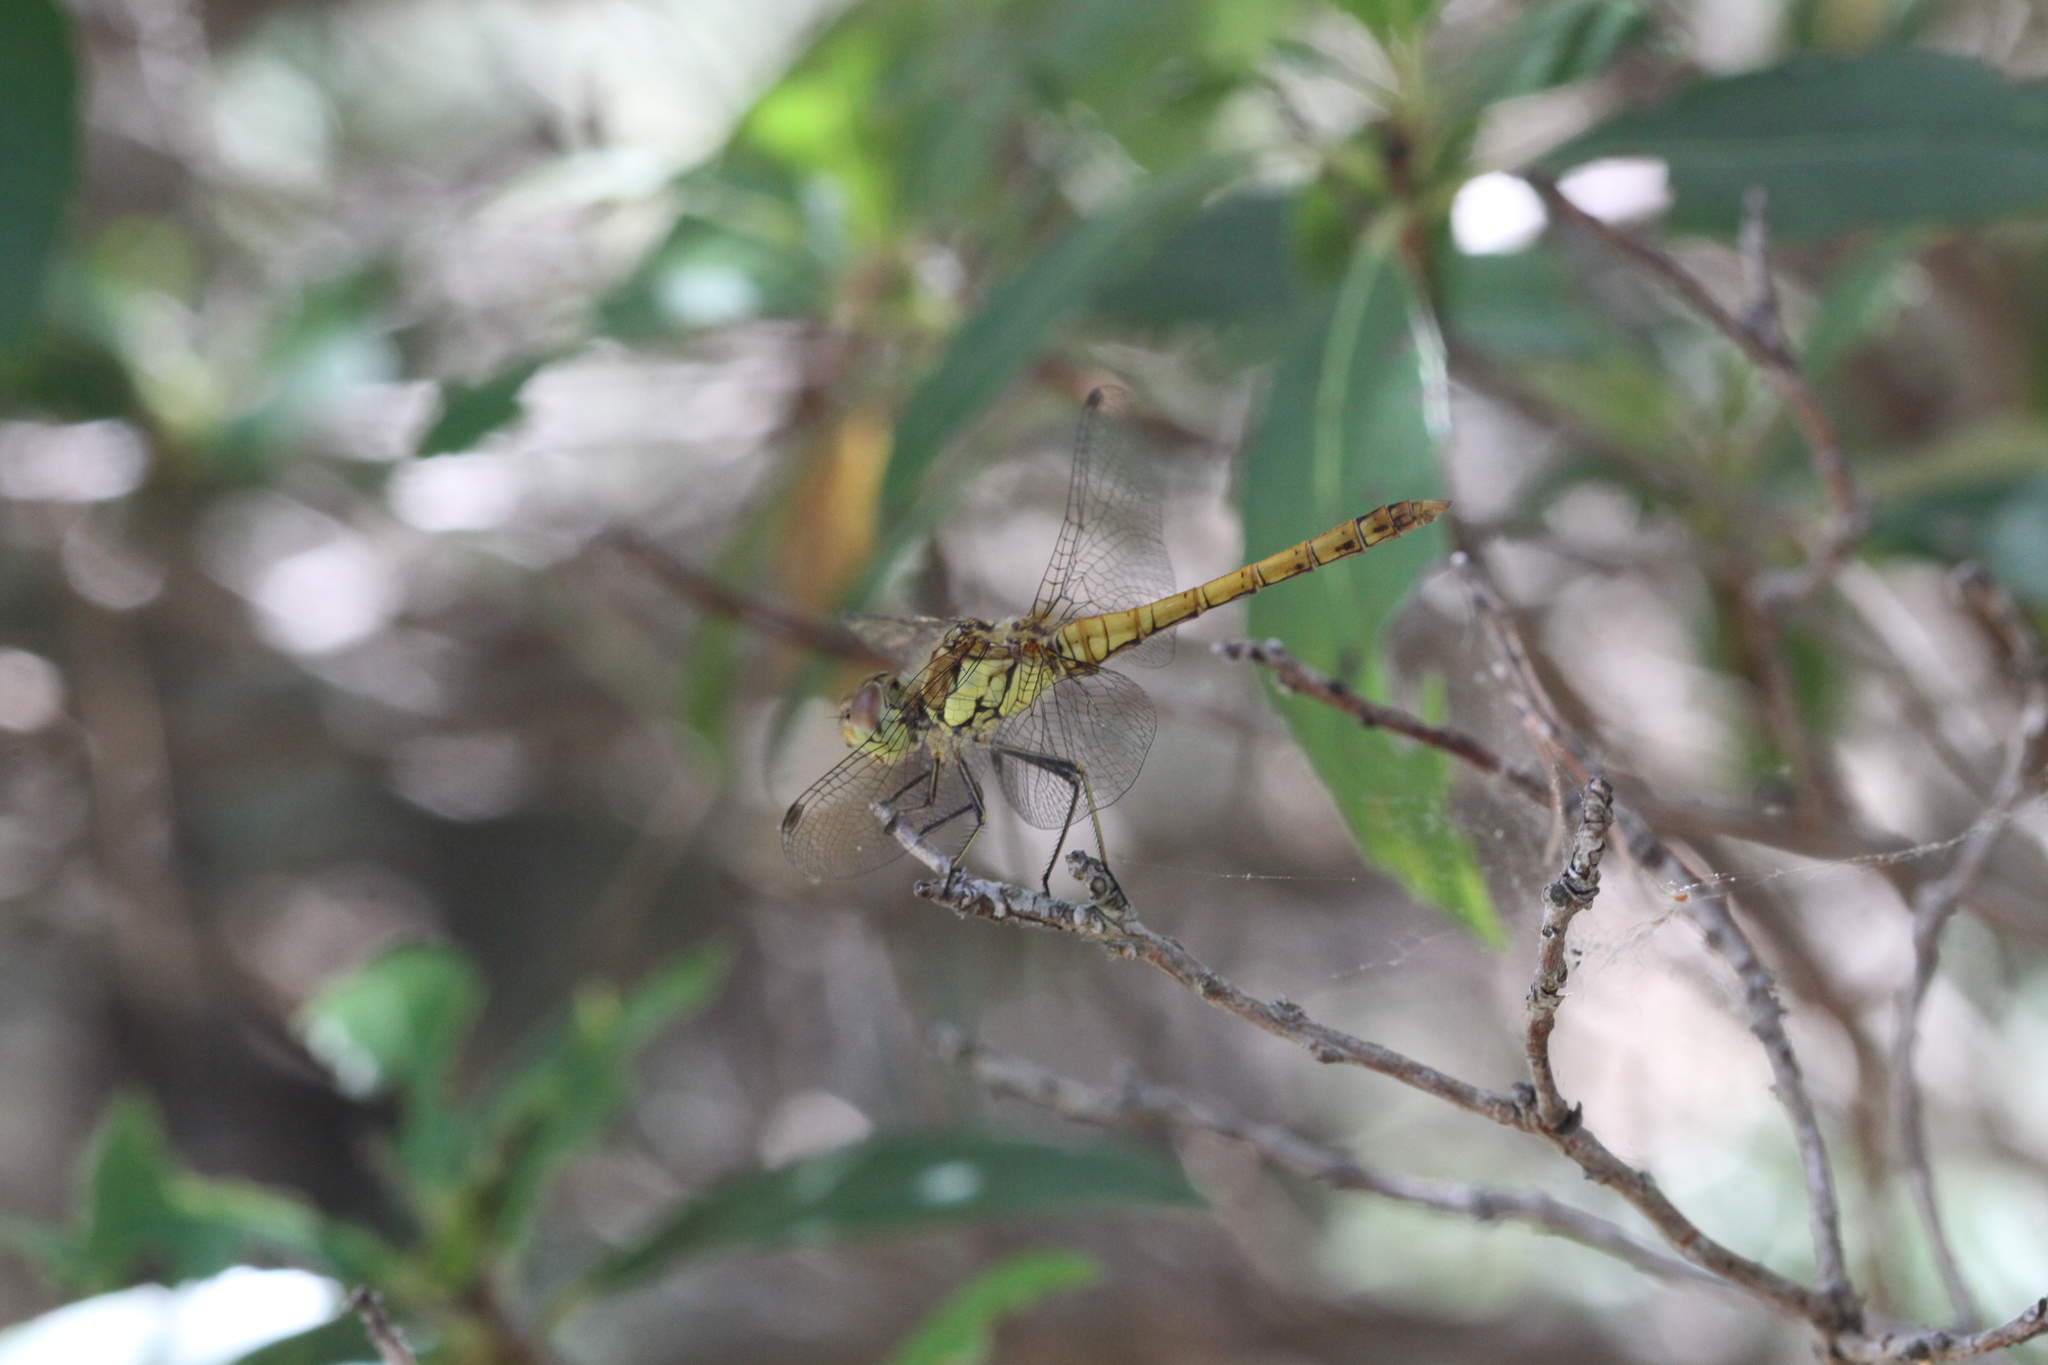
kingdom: Animalia
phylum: Arthropoda
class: Insecta
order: Odonata
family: Libellulidae
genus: Sympetrum
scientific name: Sympetrum striolatum
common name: Common darter
